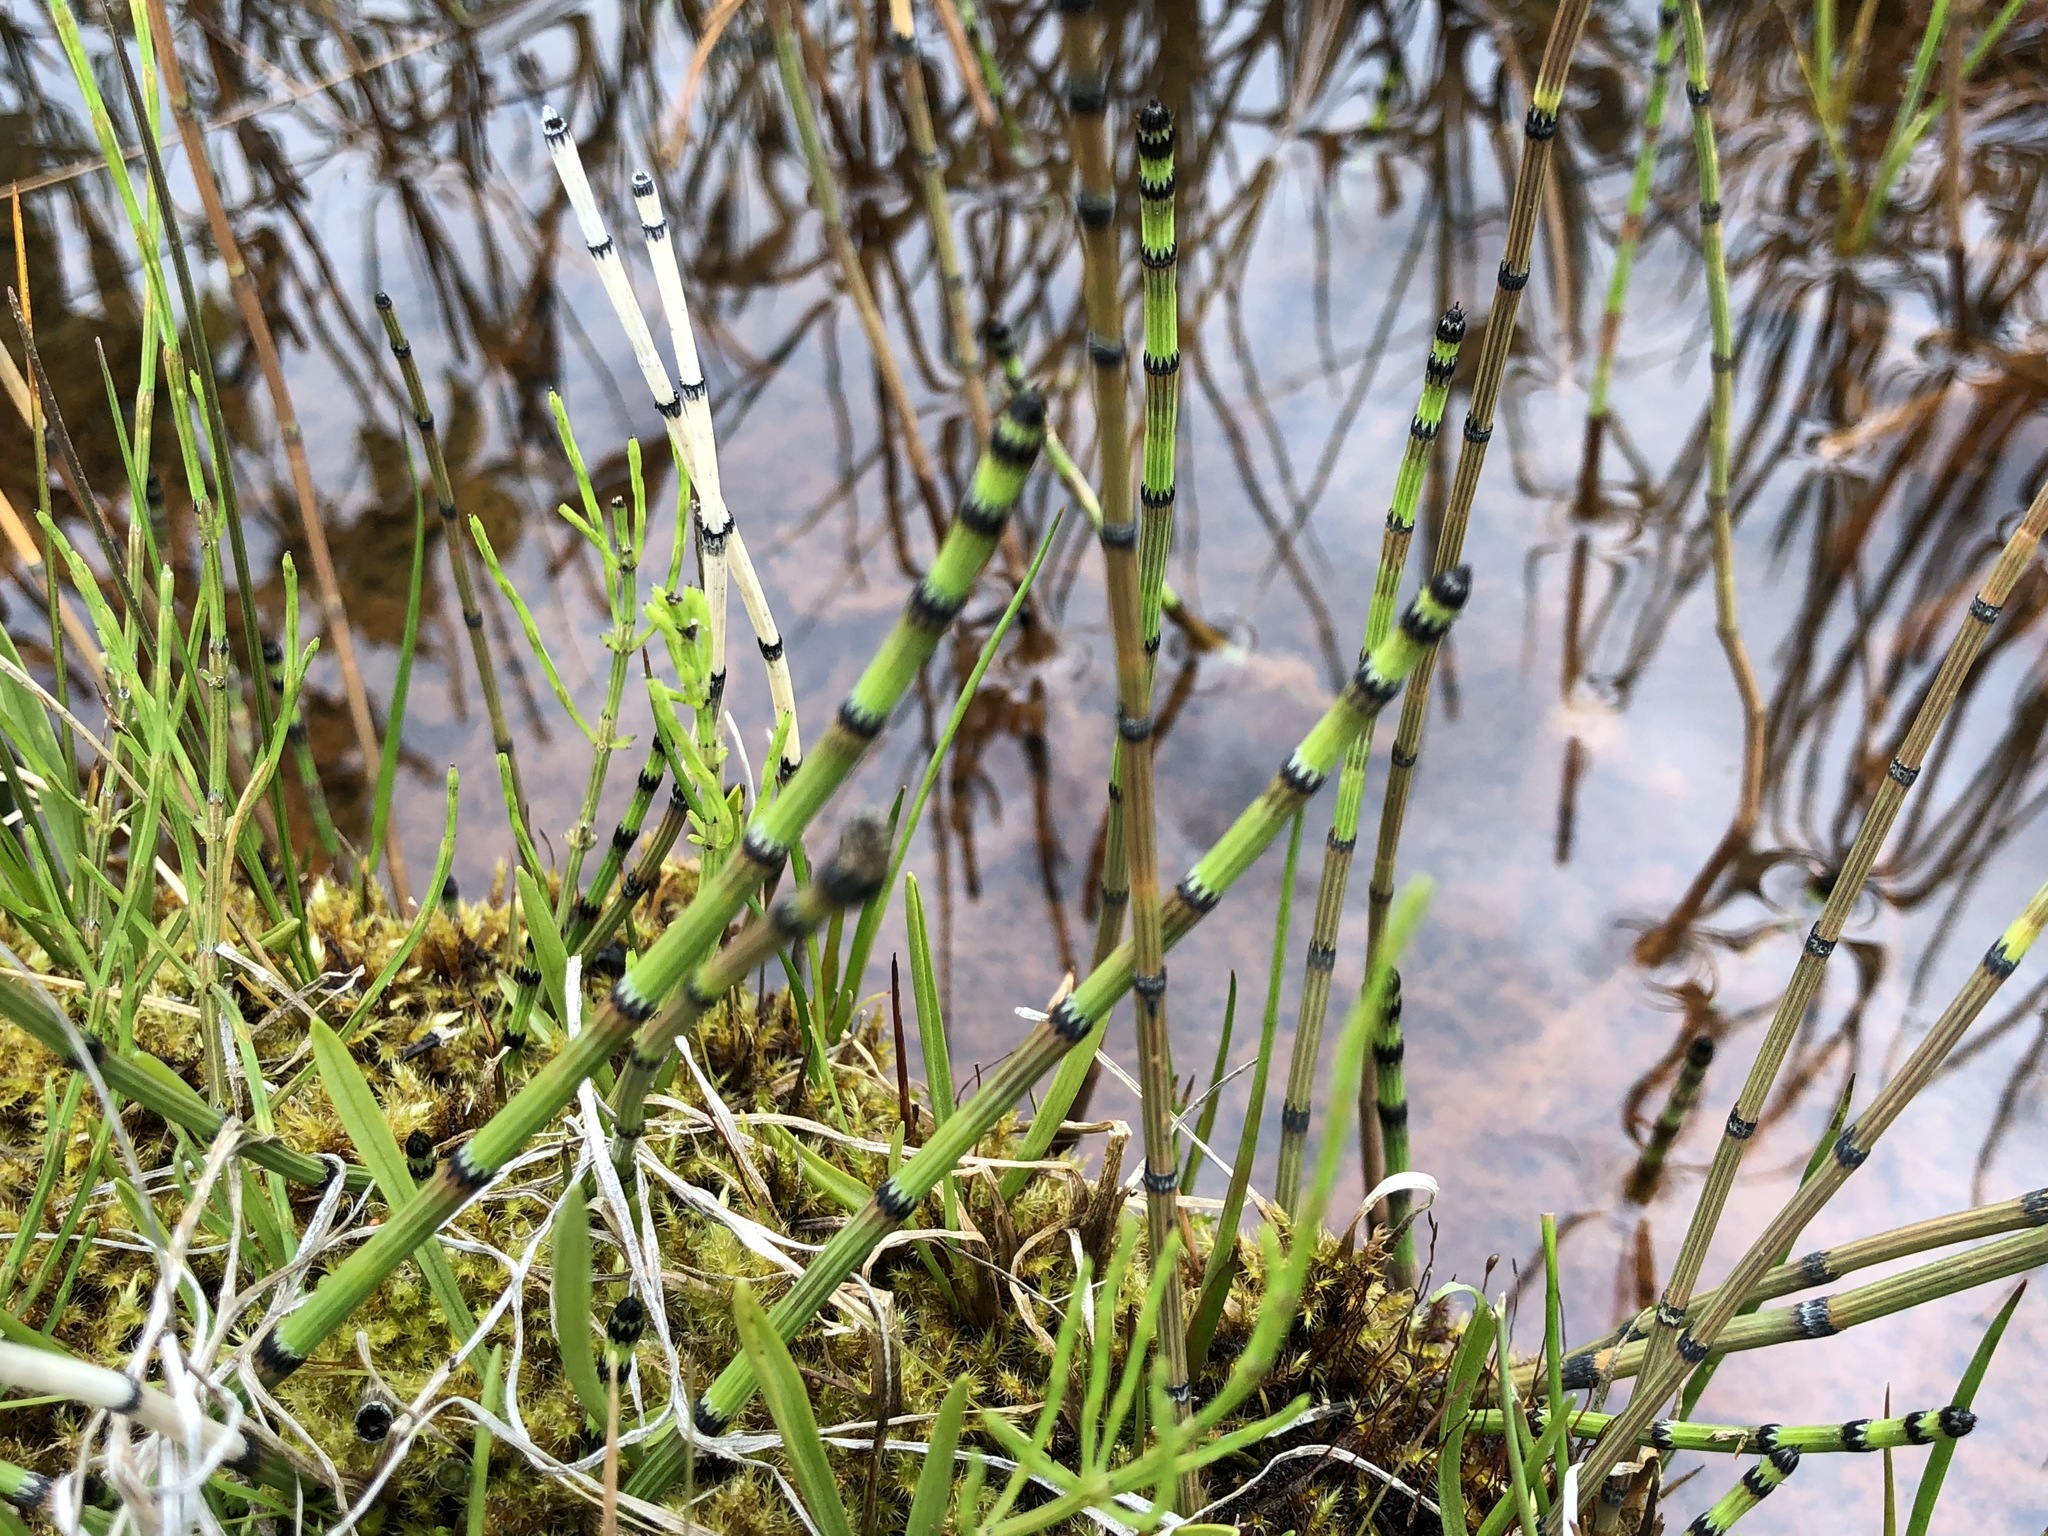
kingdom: Plantae
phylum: Tracheophyta
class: Polypodiopsida
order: Equisetales
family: Equisetaceae
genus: Equisetum
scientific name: Equisetum variegatum
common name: Variegated horsetail
